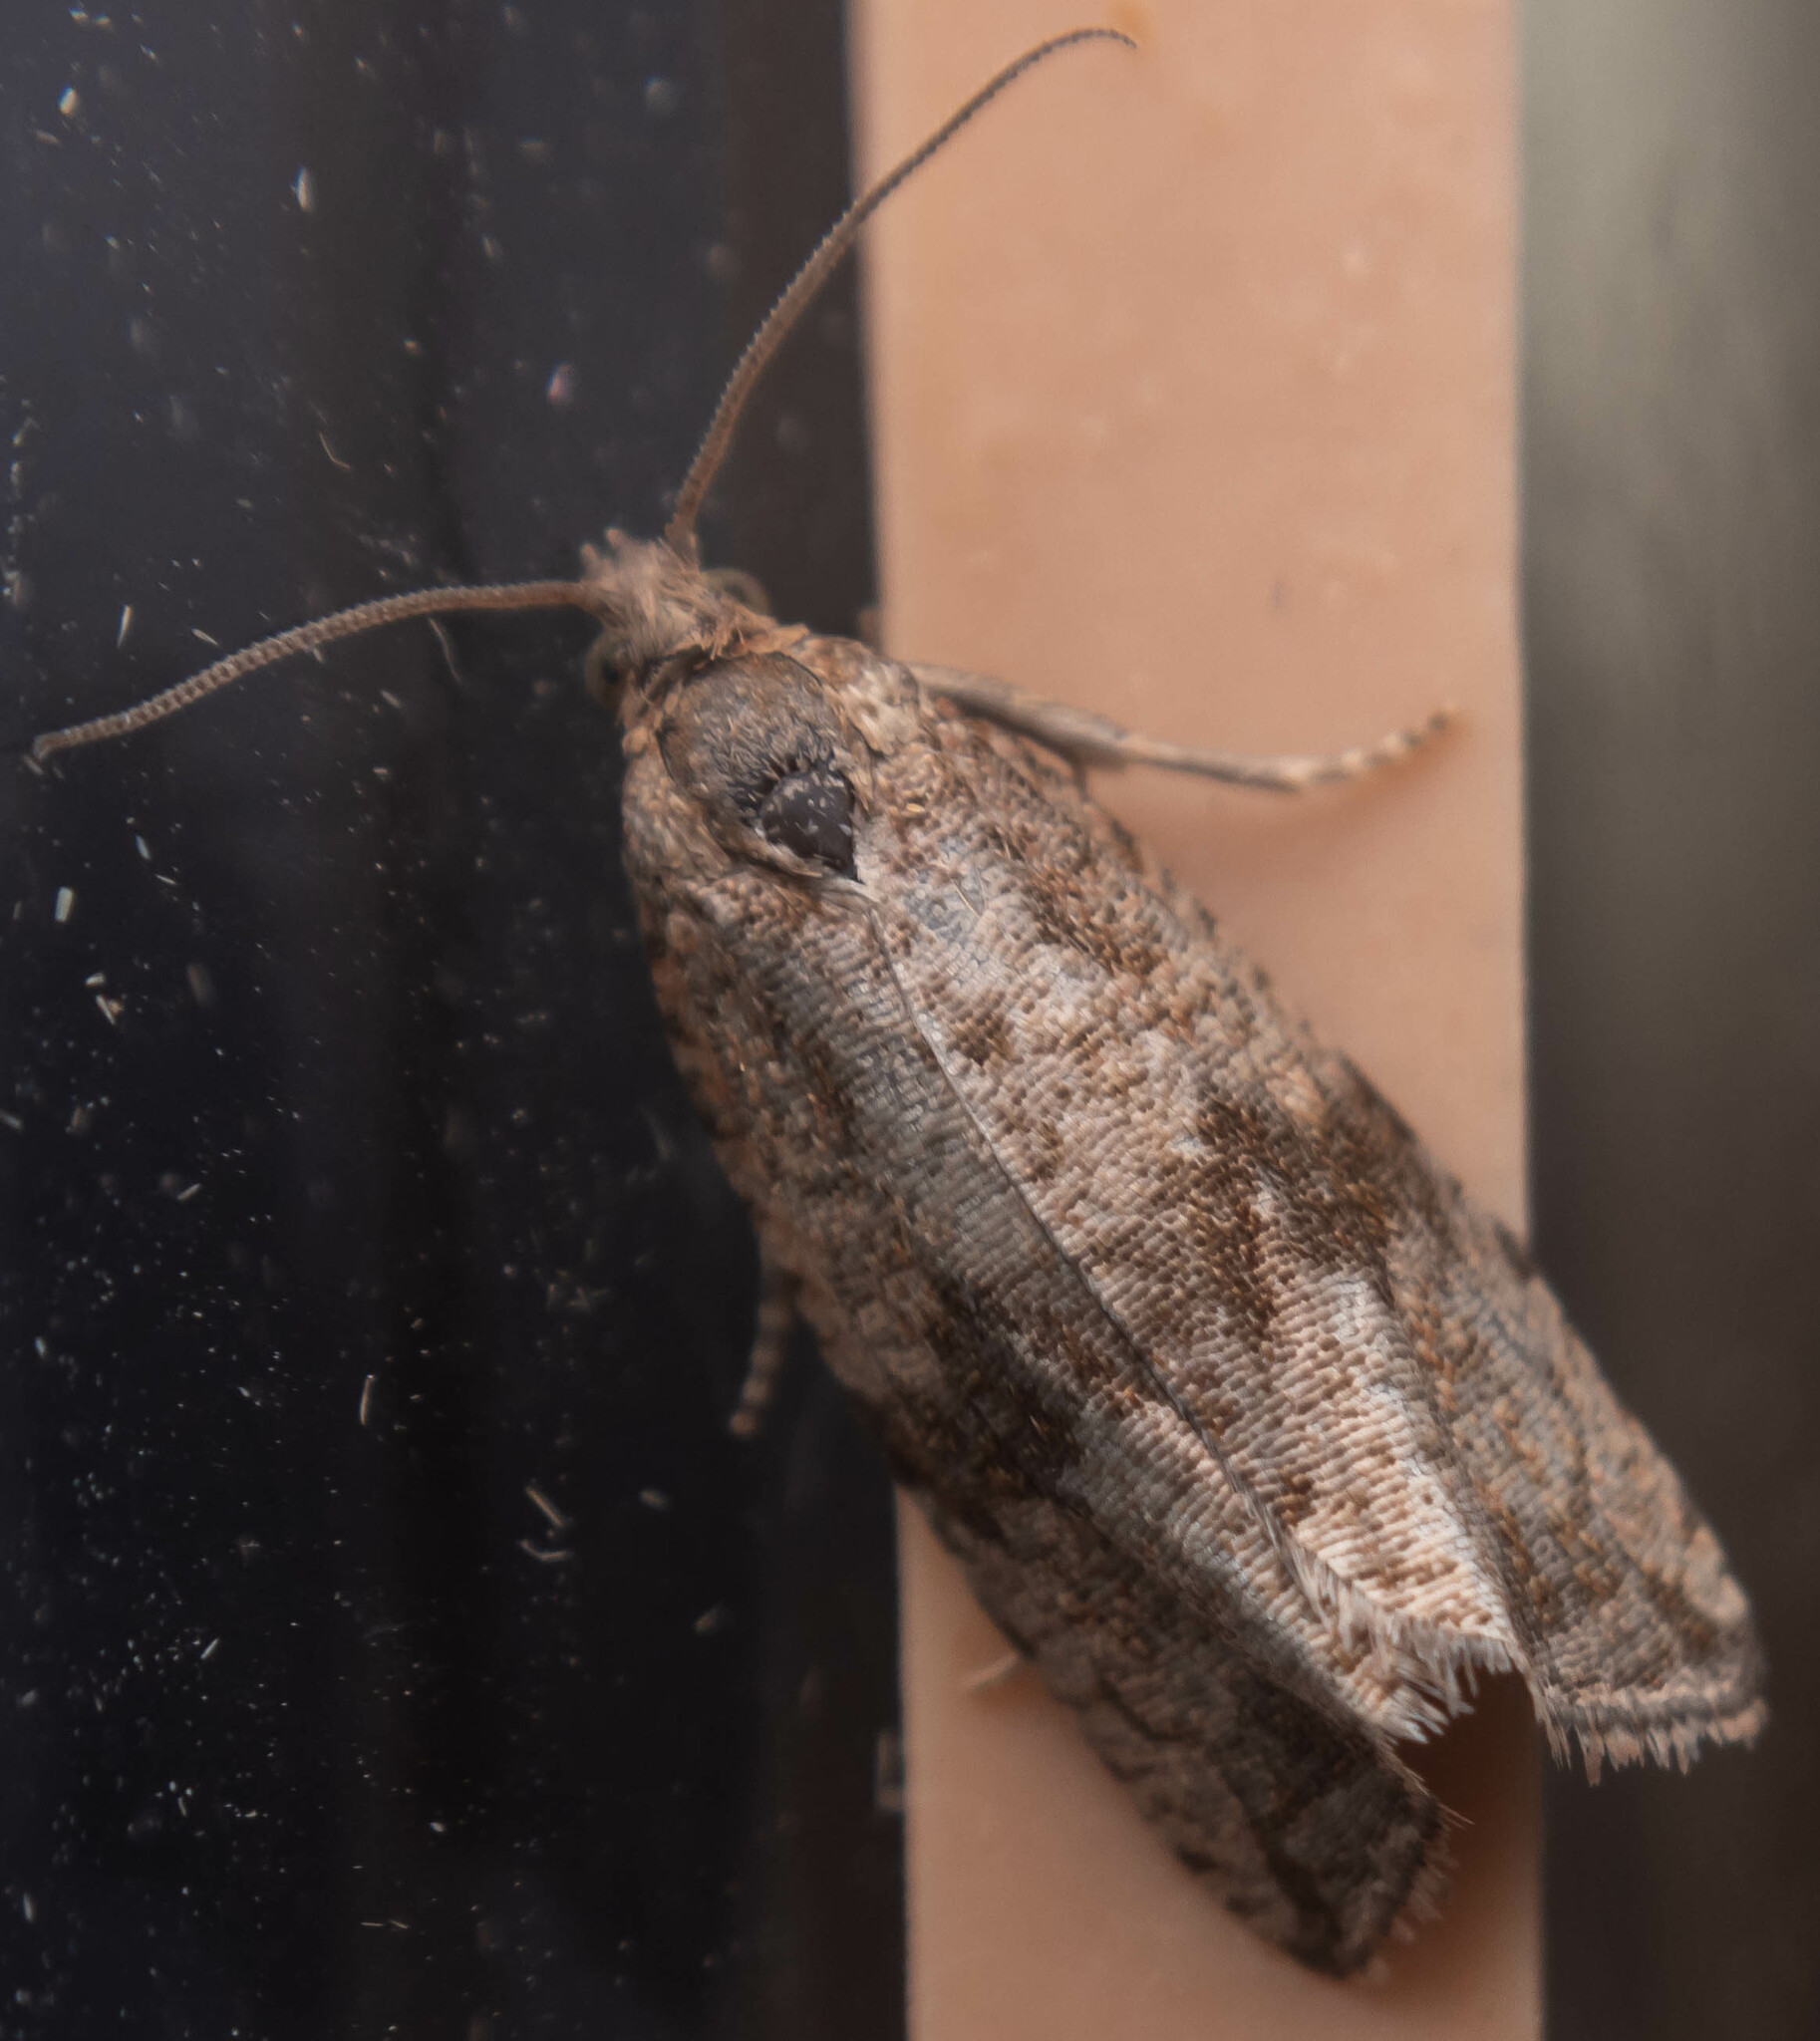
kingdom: Animalia
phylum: Arthropoda
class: Insecta
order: Lepidoptera
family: Tortricidae
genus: Celypha
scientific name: Celypha striana
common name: Barred marble
